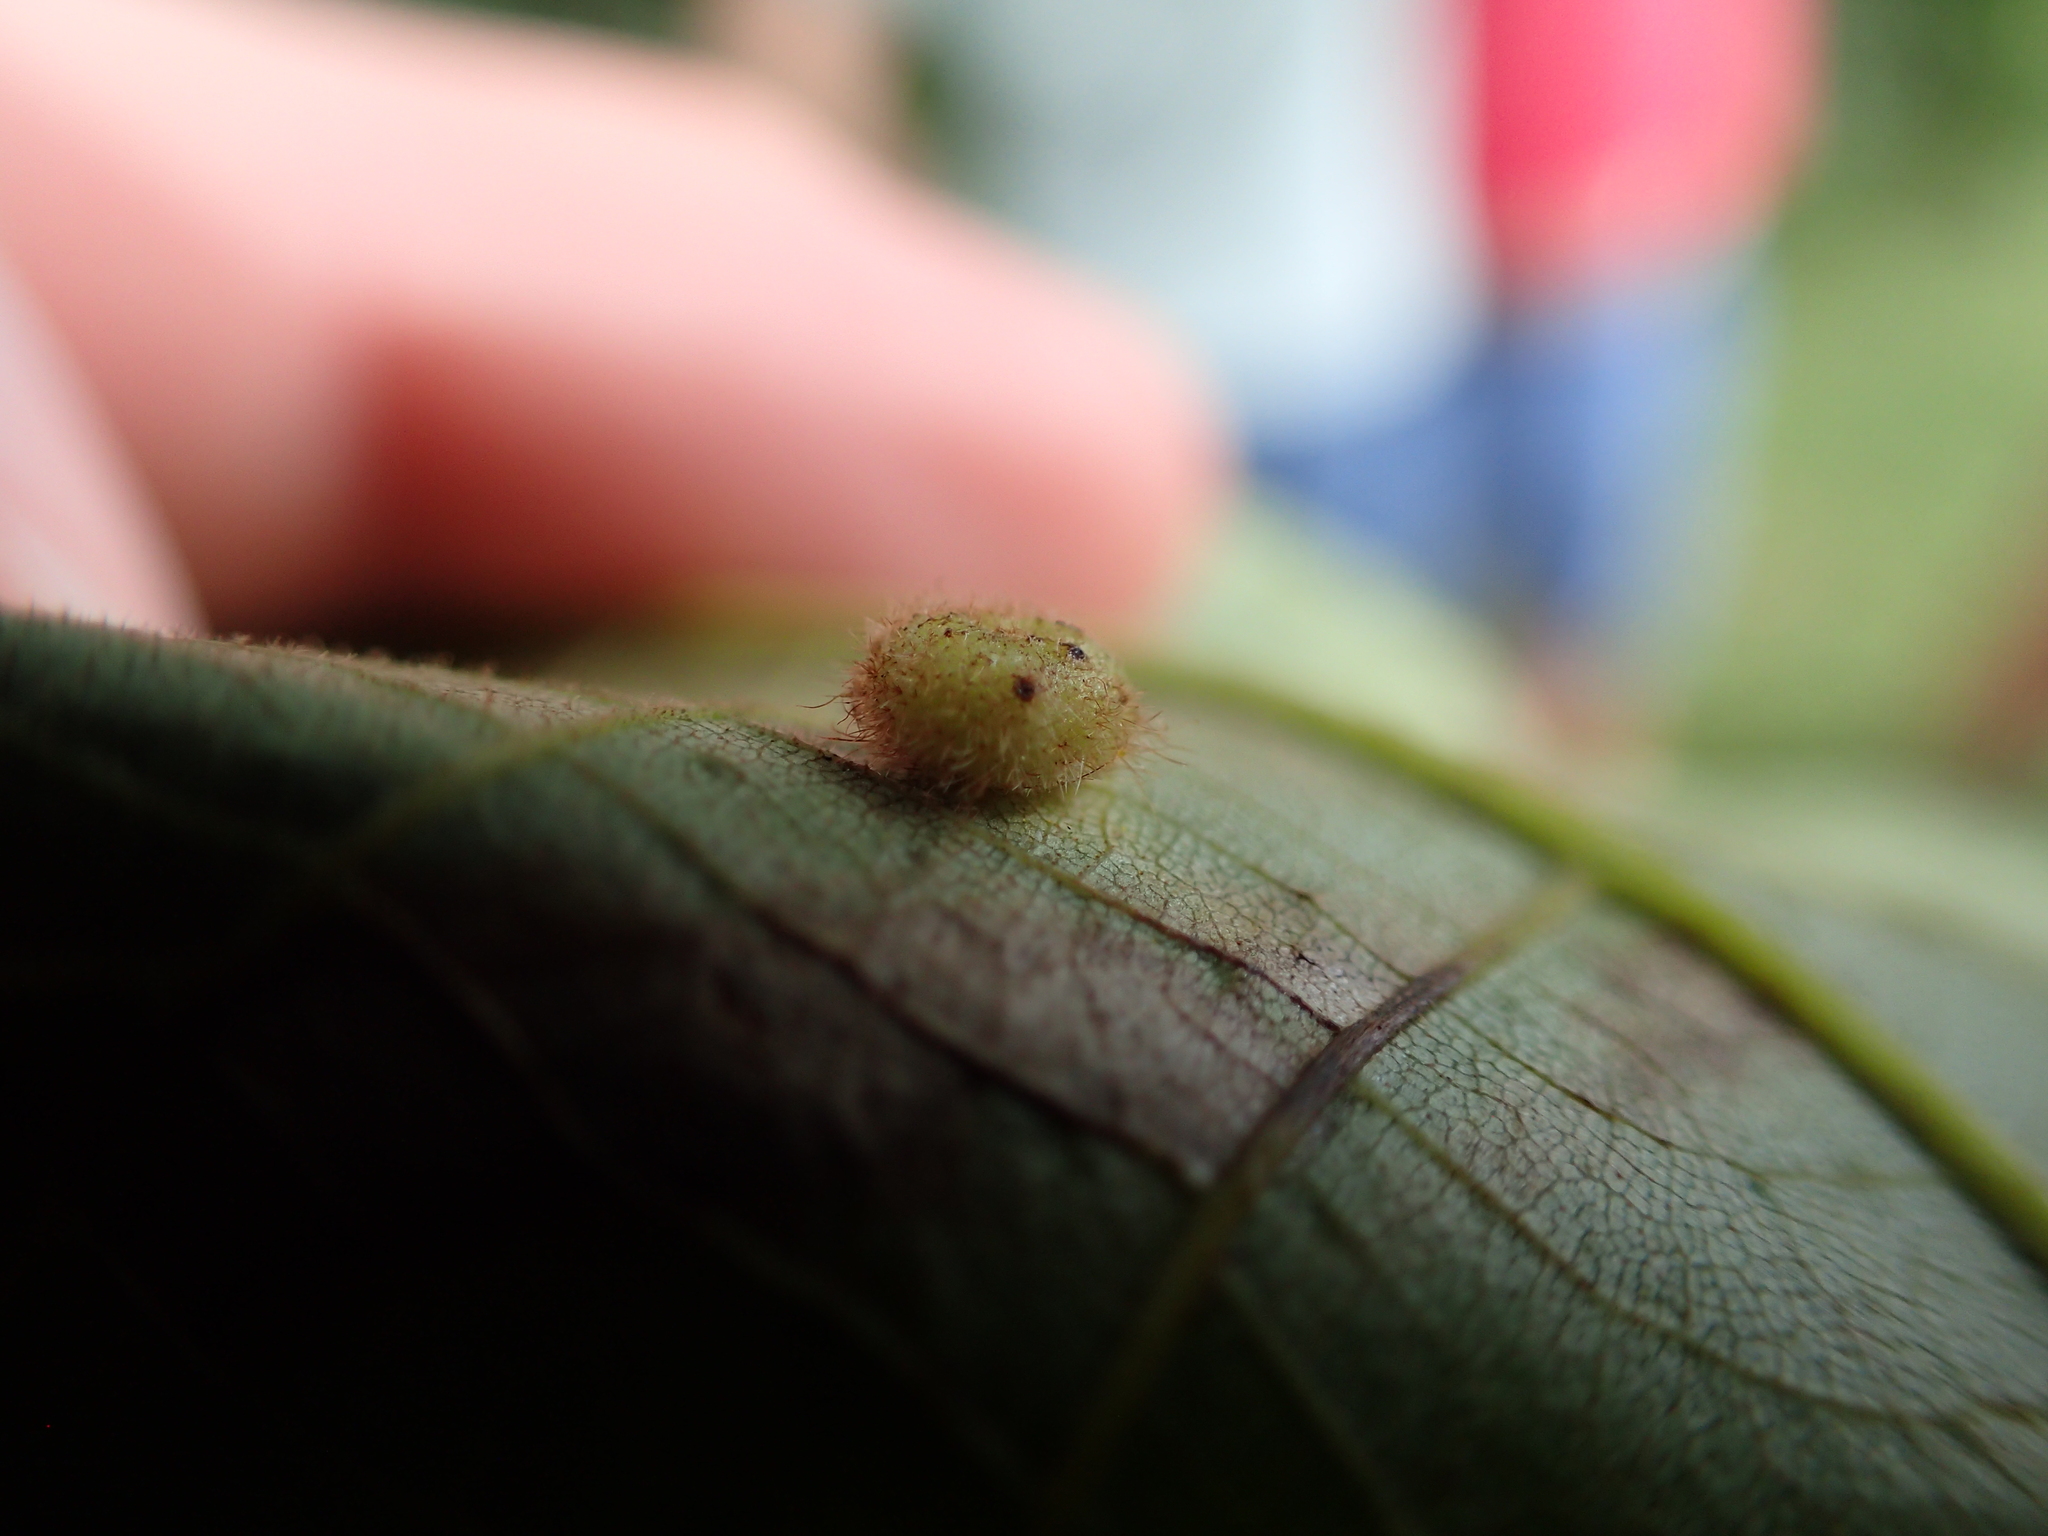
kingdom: Animalia
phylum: Arthropoda
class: Insecta
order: Diptera
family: Cecidomyiidae
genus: Caryomyia
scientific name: Caryomyia thompsoni
